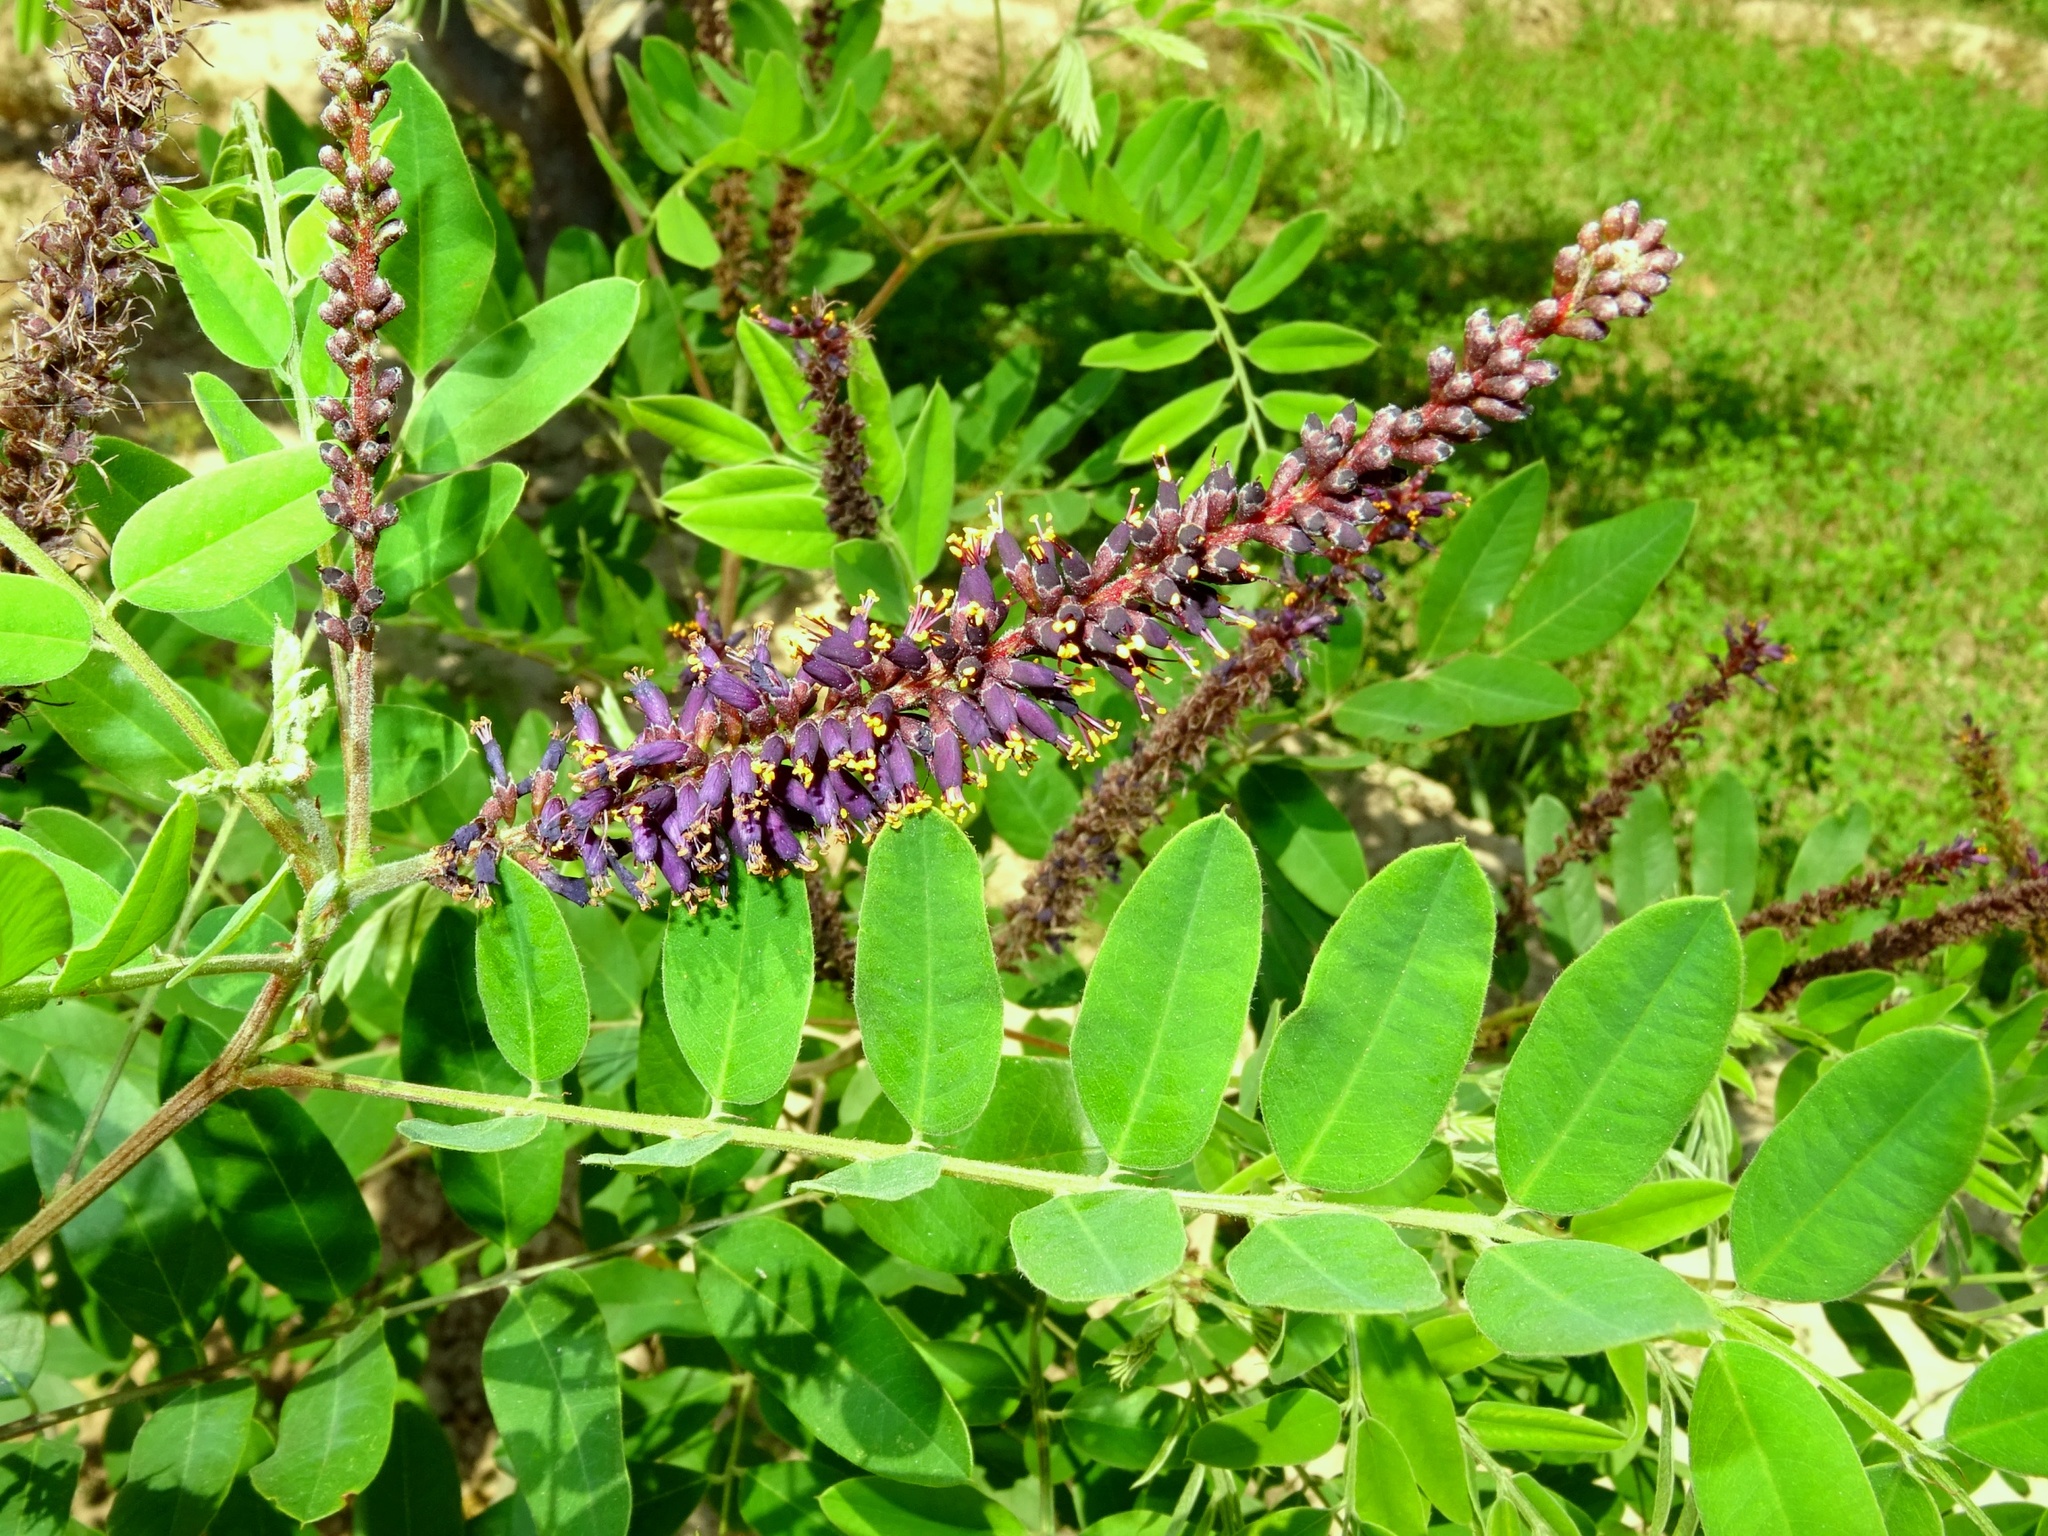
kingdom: Plantae
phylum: Tracheophyta
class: Magnoliopsida
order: Fabales
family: Fabaceae
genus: Amorpha
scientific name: Amorpha fruticosa
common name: False indigo
